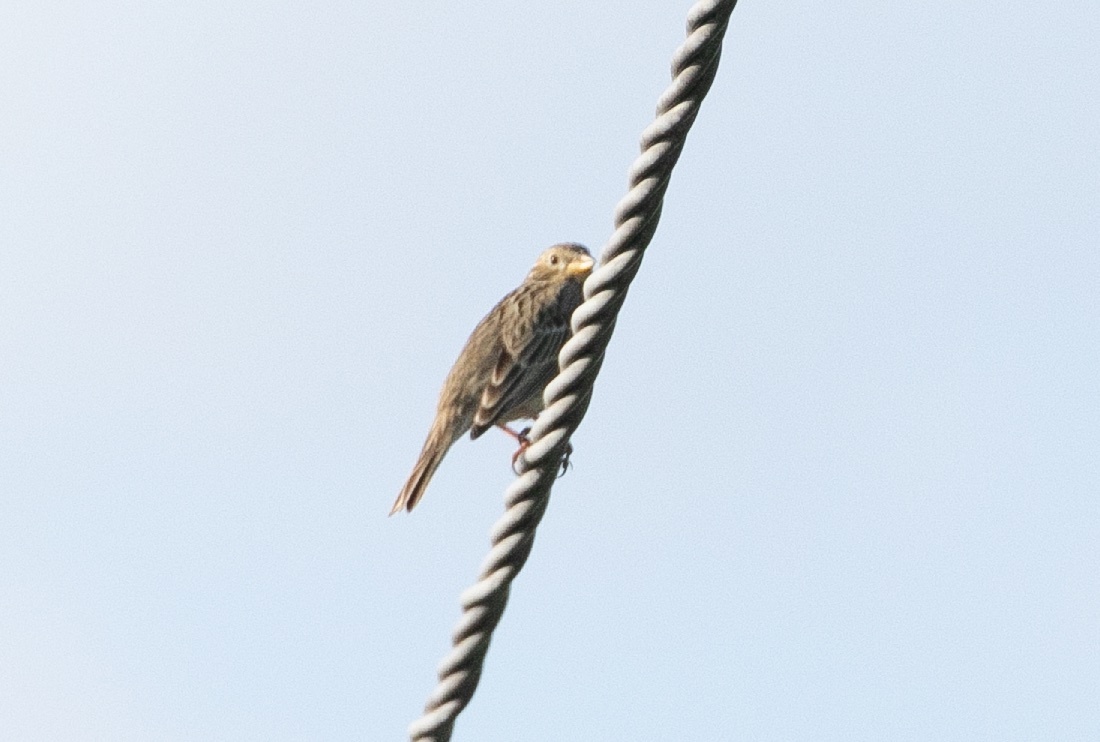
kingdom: Animalia
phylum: Chordata
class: Aves
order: Passeriformes
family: Emberizidae
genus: Emberiza
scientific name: Emberiza calandra
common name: Corn bunting
